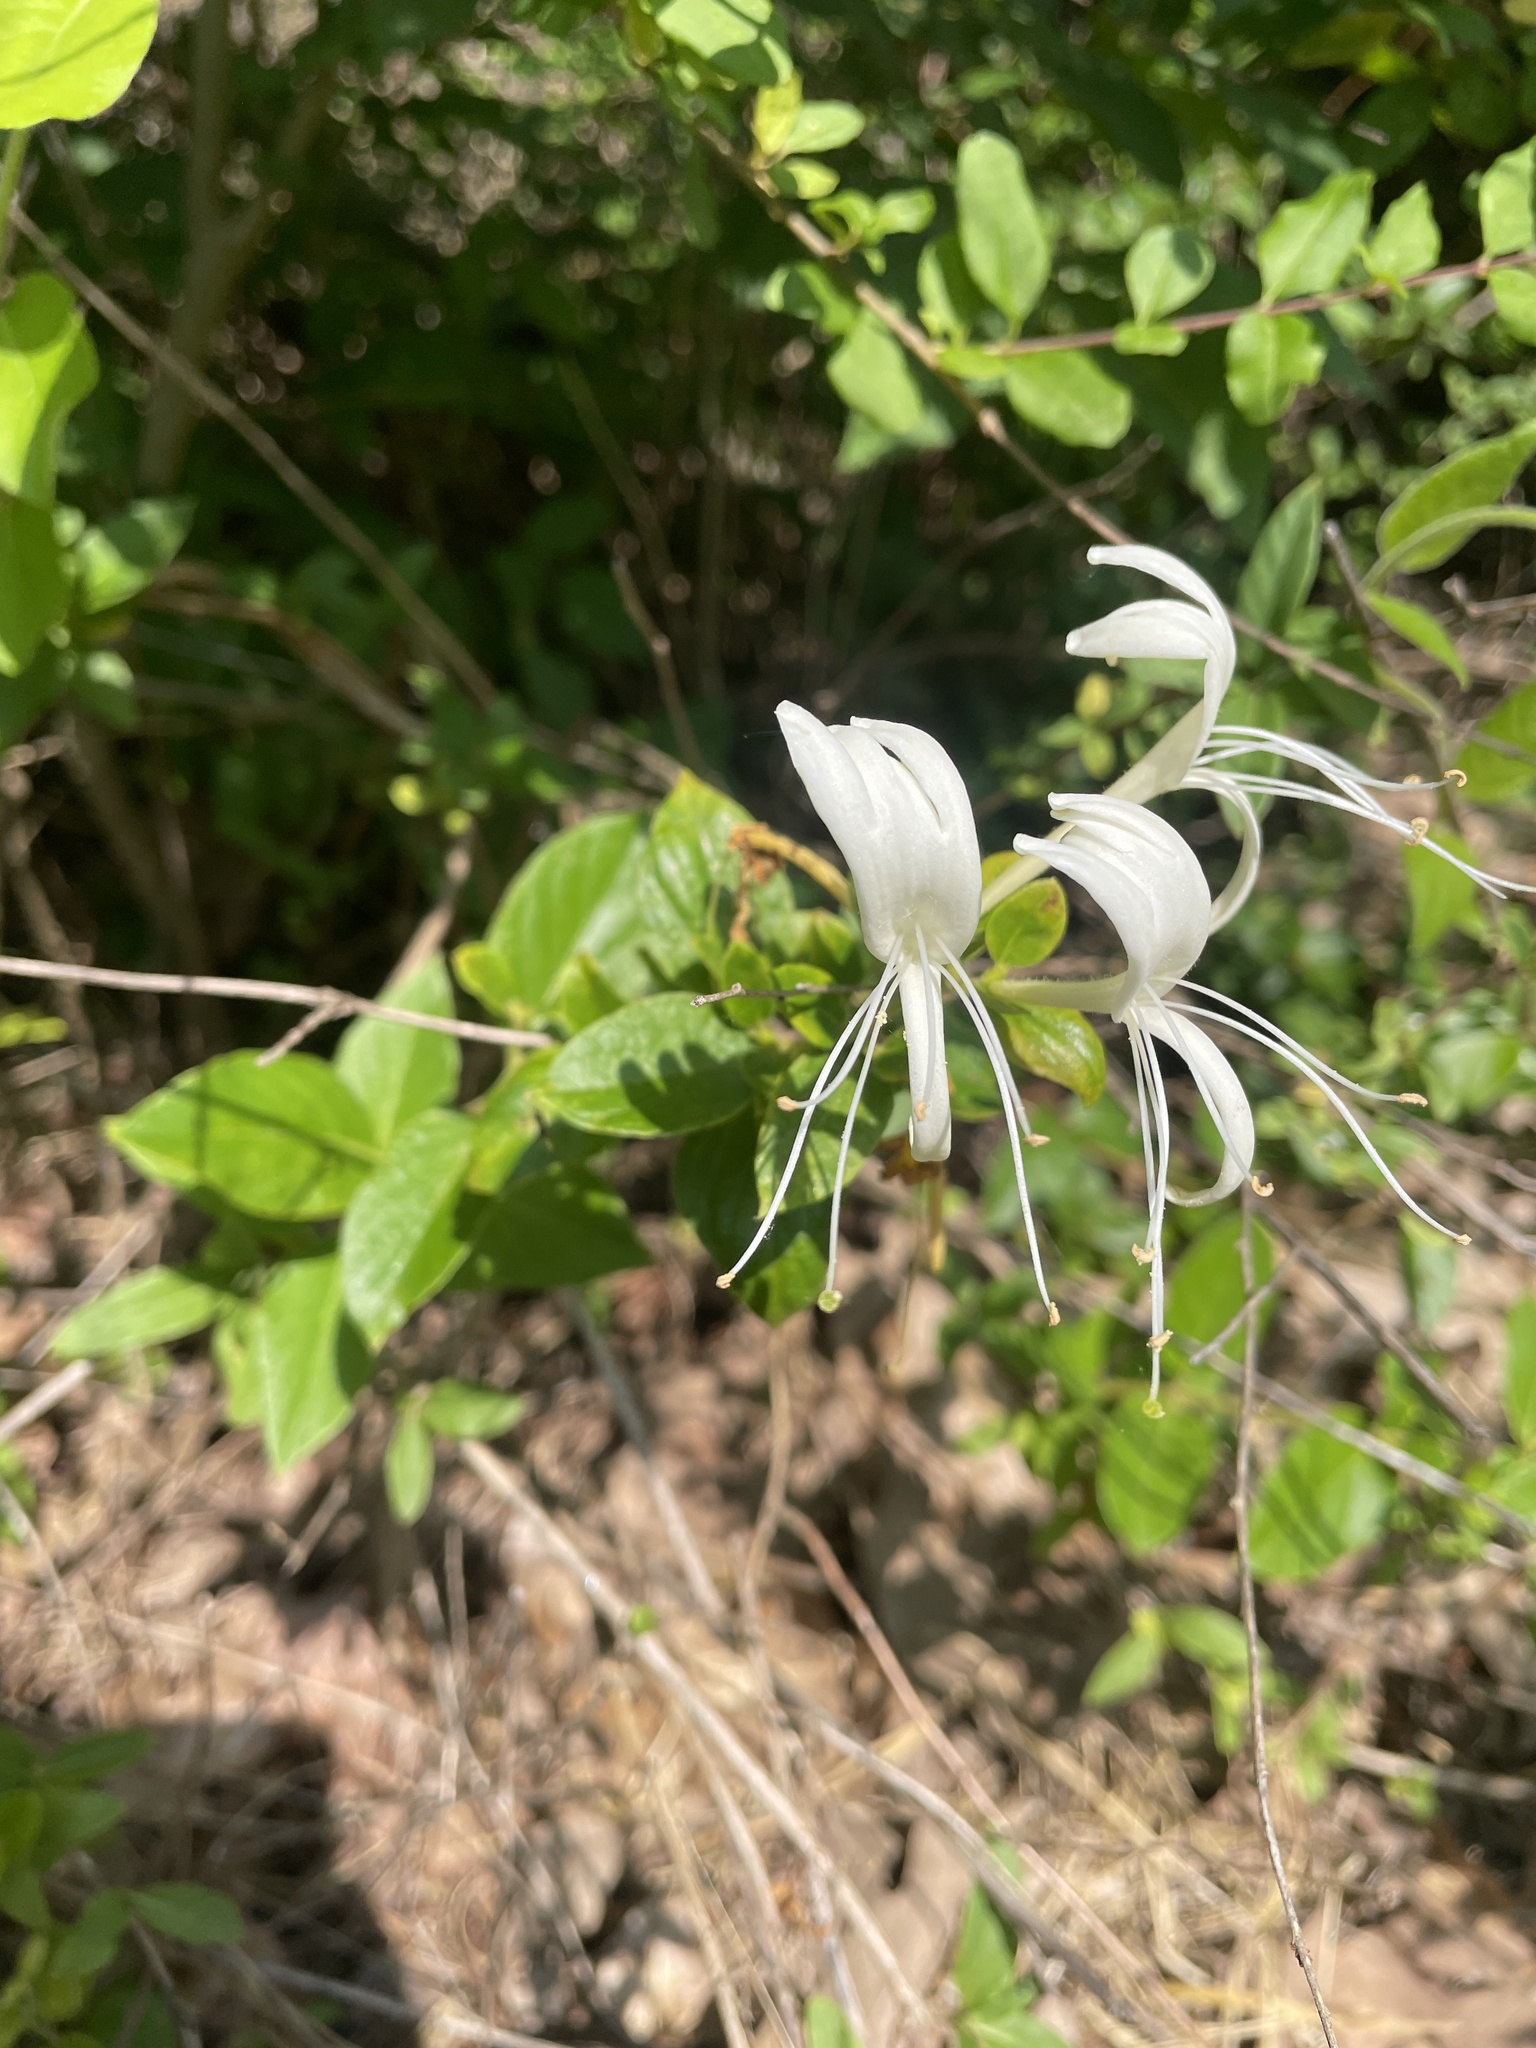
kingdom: Plantae
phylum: Tracheophyta
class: Magnoliopsida
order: Dipsacales
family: Caprifoliaceae
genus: Lonicera
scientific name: Lonicera japonica
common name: Japanese honeysuckle
